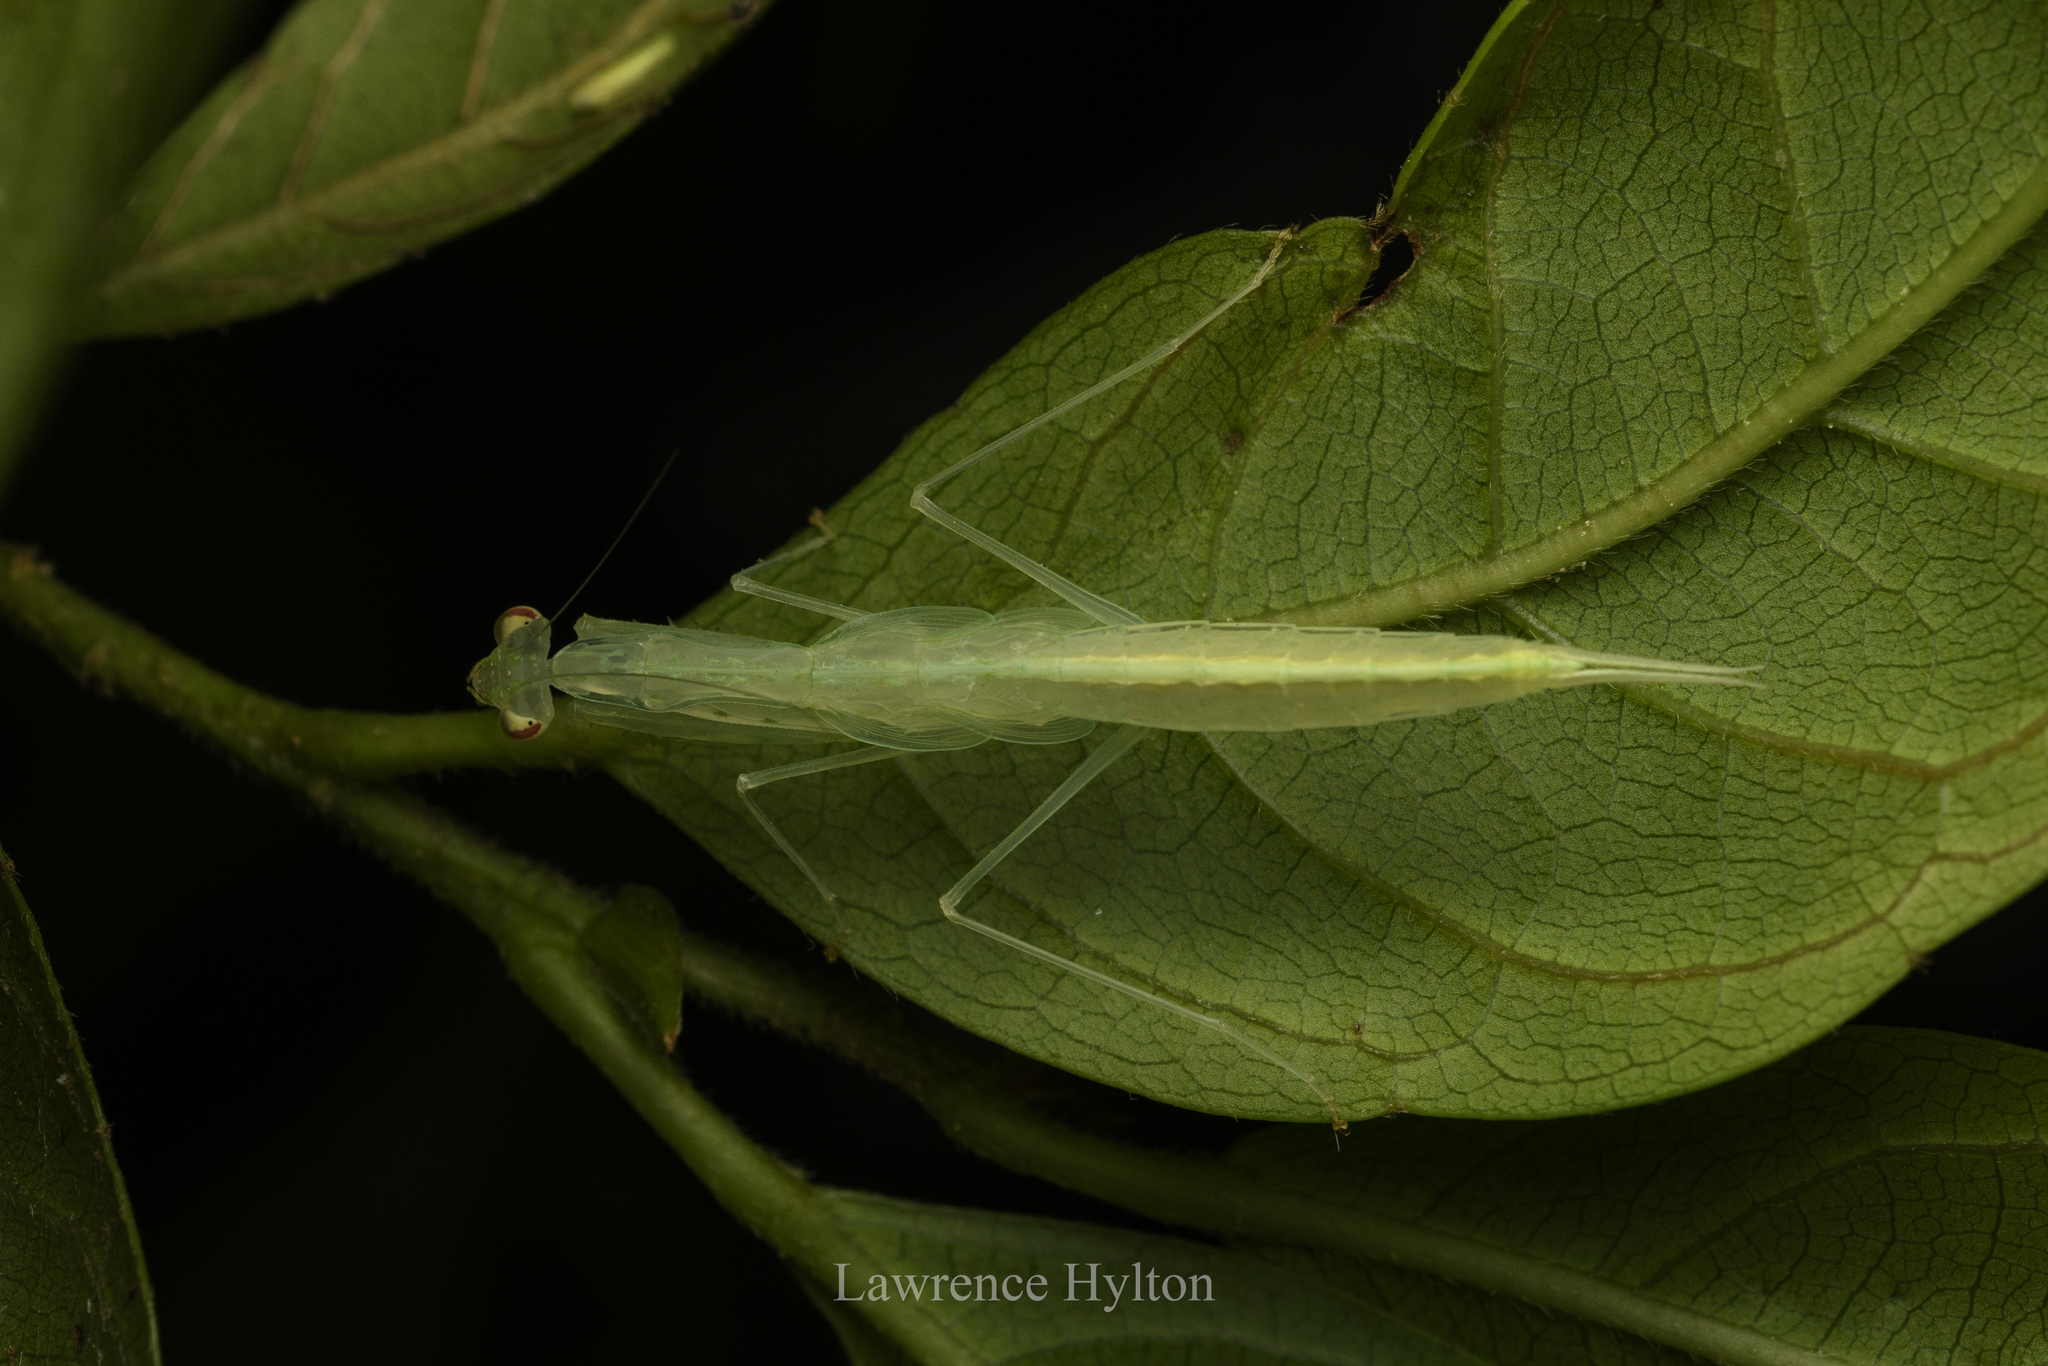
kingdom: Animalia
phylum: Arthropoda
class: Insecta
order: Mantodea
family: Nanomantidae
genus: Sinomantis
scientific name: Sinomantis denticulata
